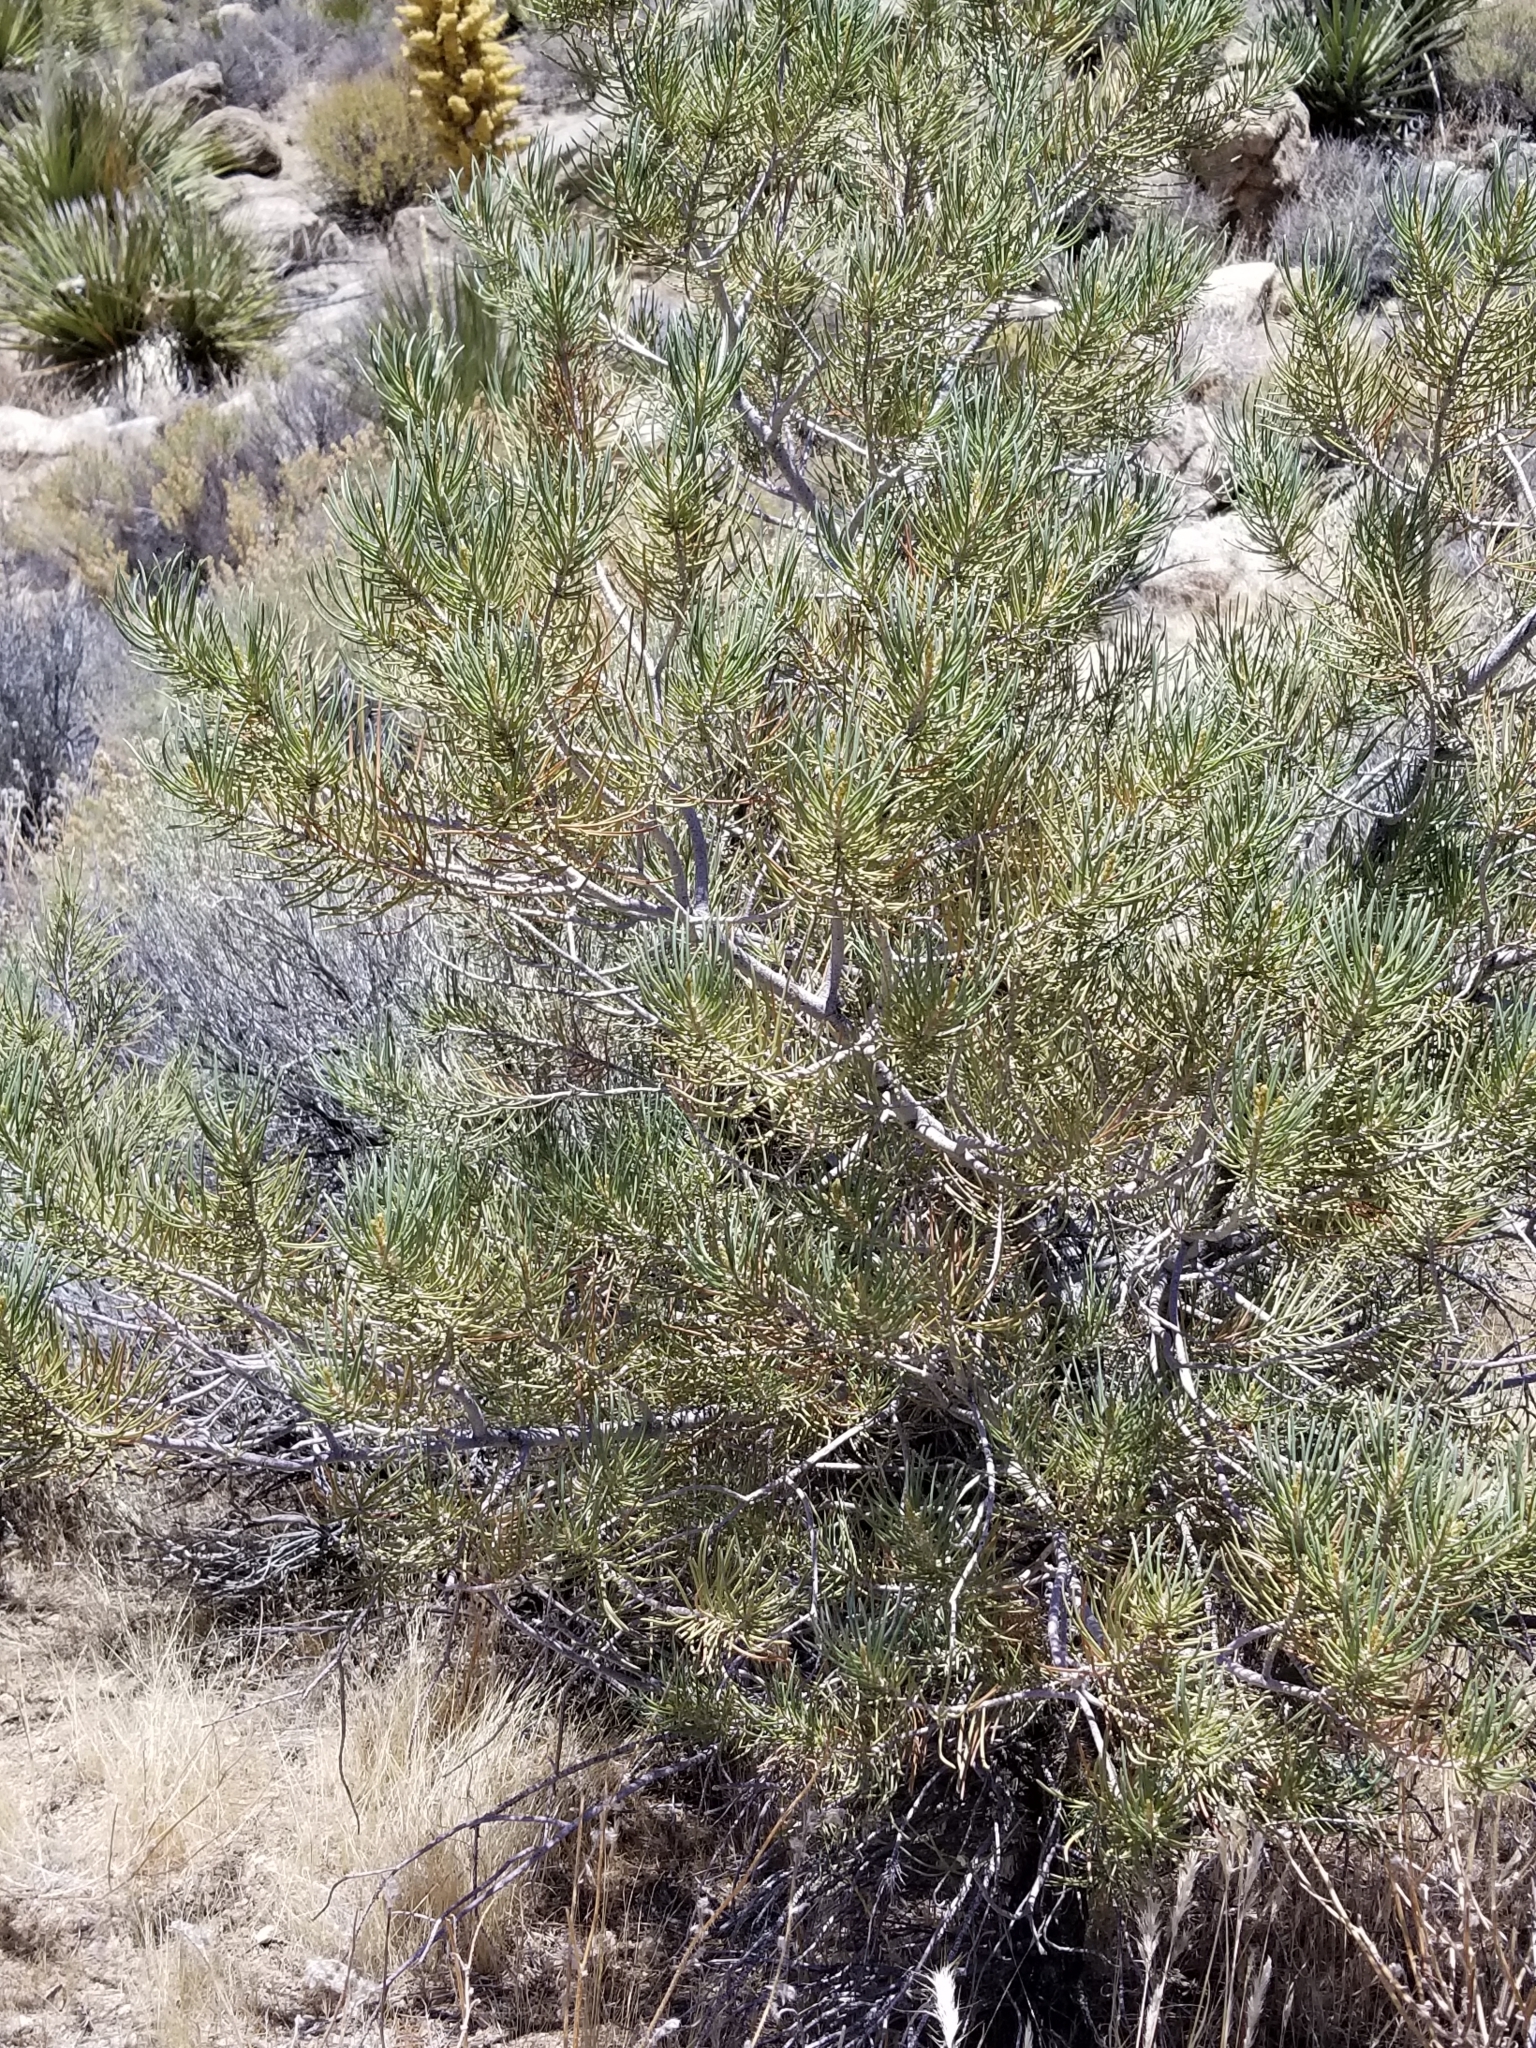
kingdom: Plantae
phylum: Tracheophyta
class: Pinopsida
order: Pinales
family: Pinaceae
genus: Pinus
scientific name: Pinus monophylla
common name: One-leaved nut pine
